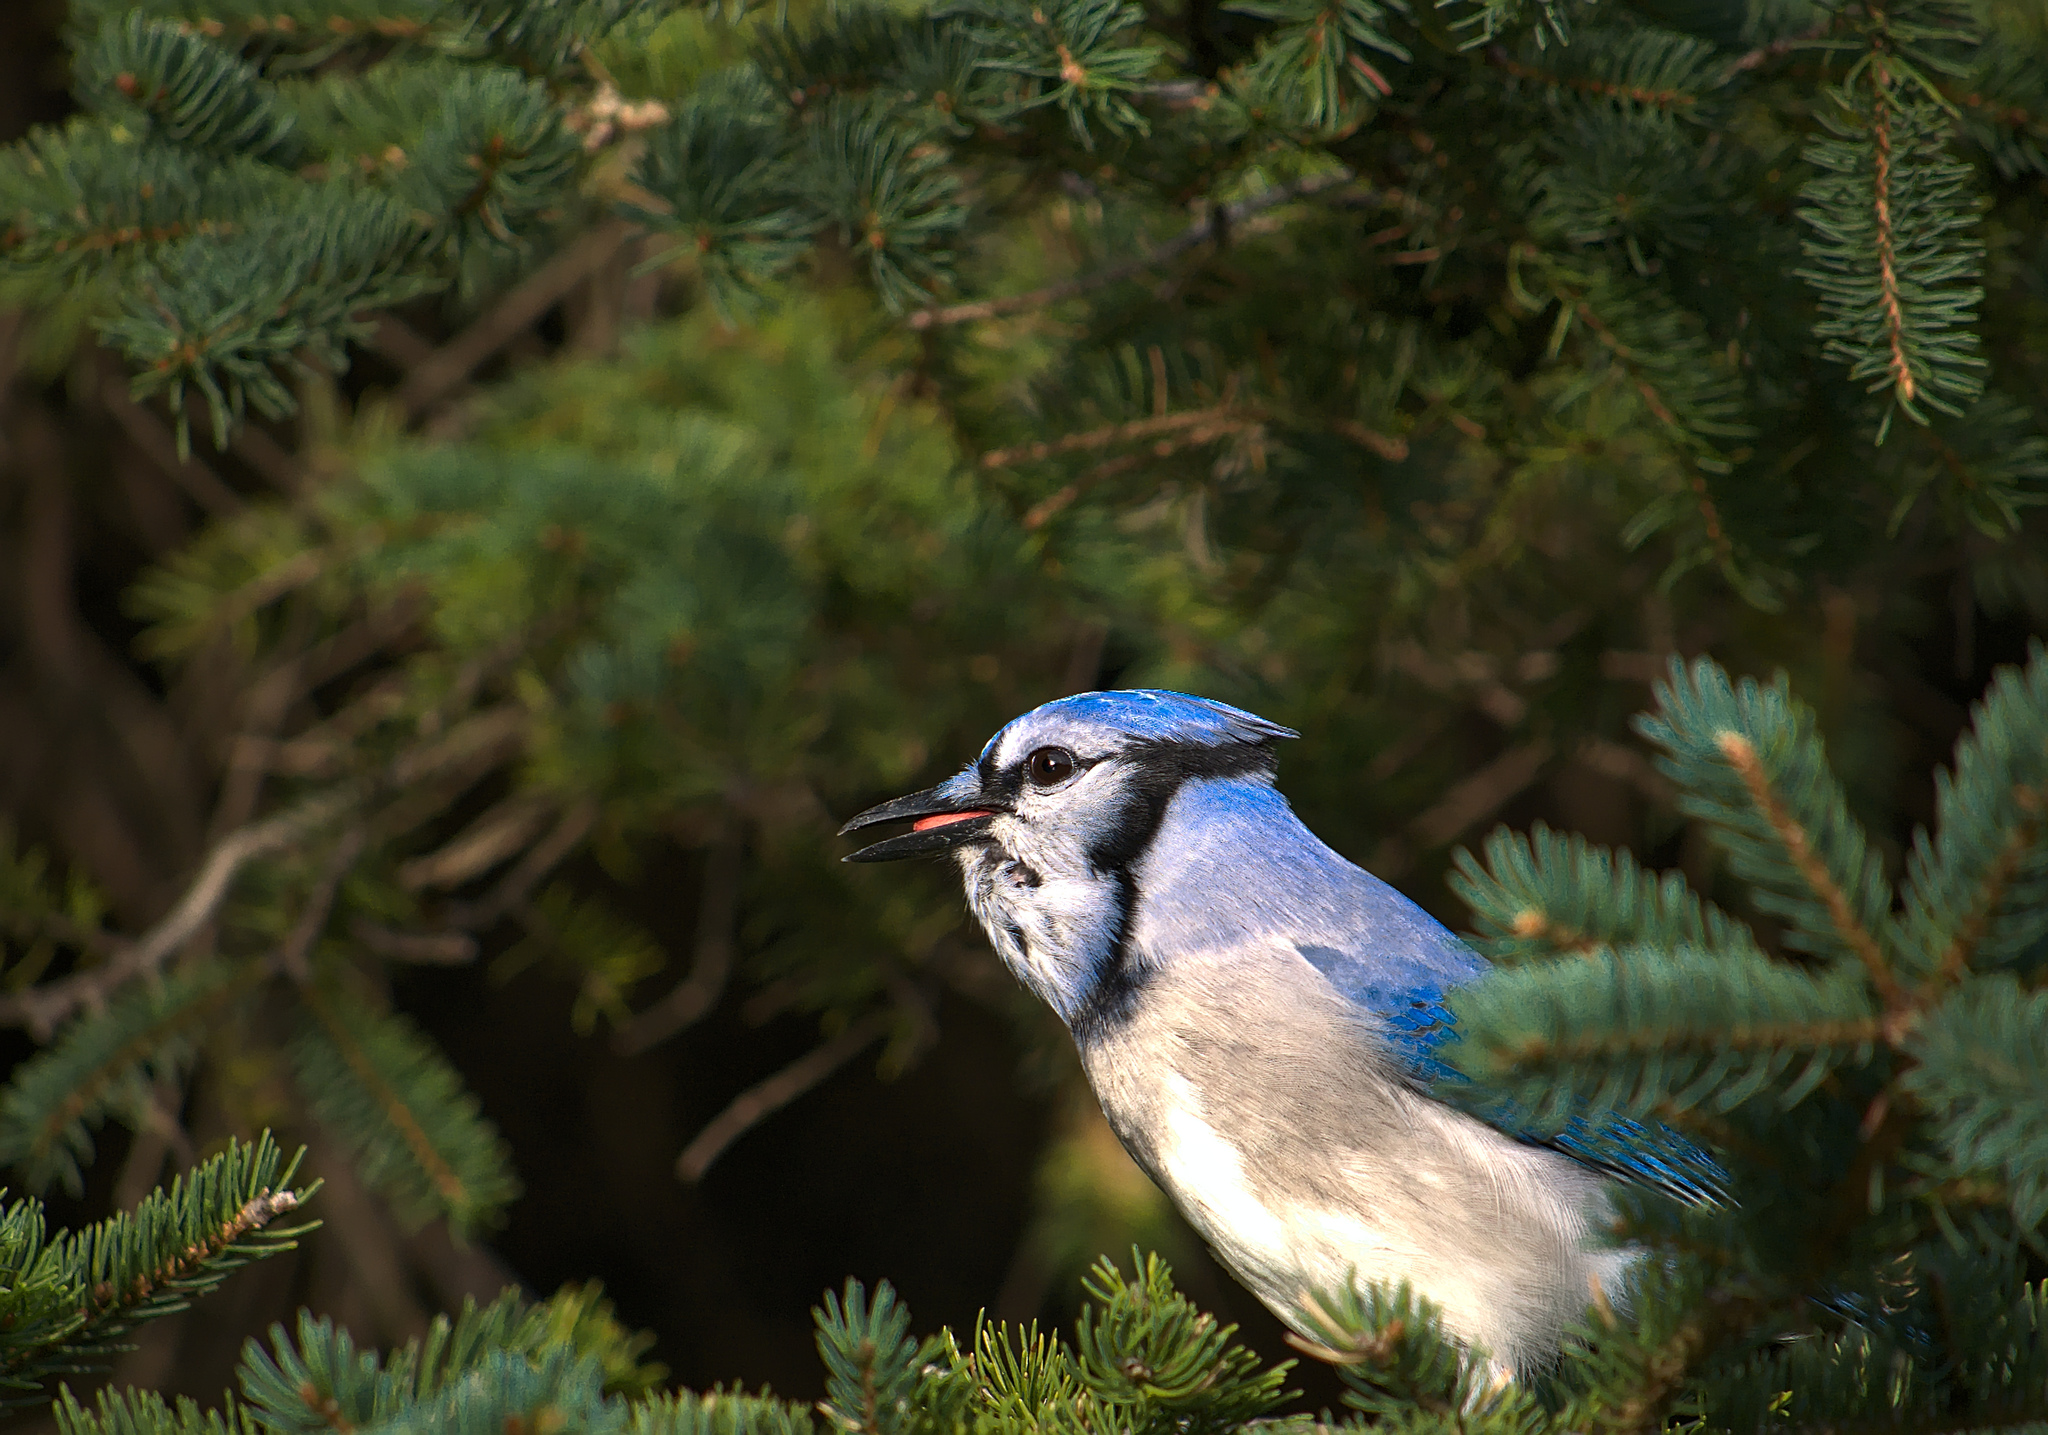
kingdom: Animalia
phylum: Chordata
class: Aves
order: Passeriformes
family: Corvidae
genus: Cyanocitta
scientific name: Cyanocitta cristata
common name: Blue jay
